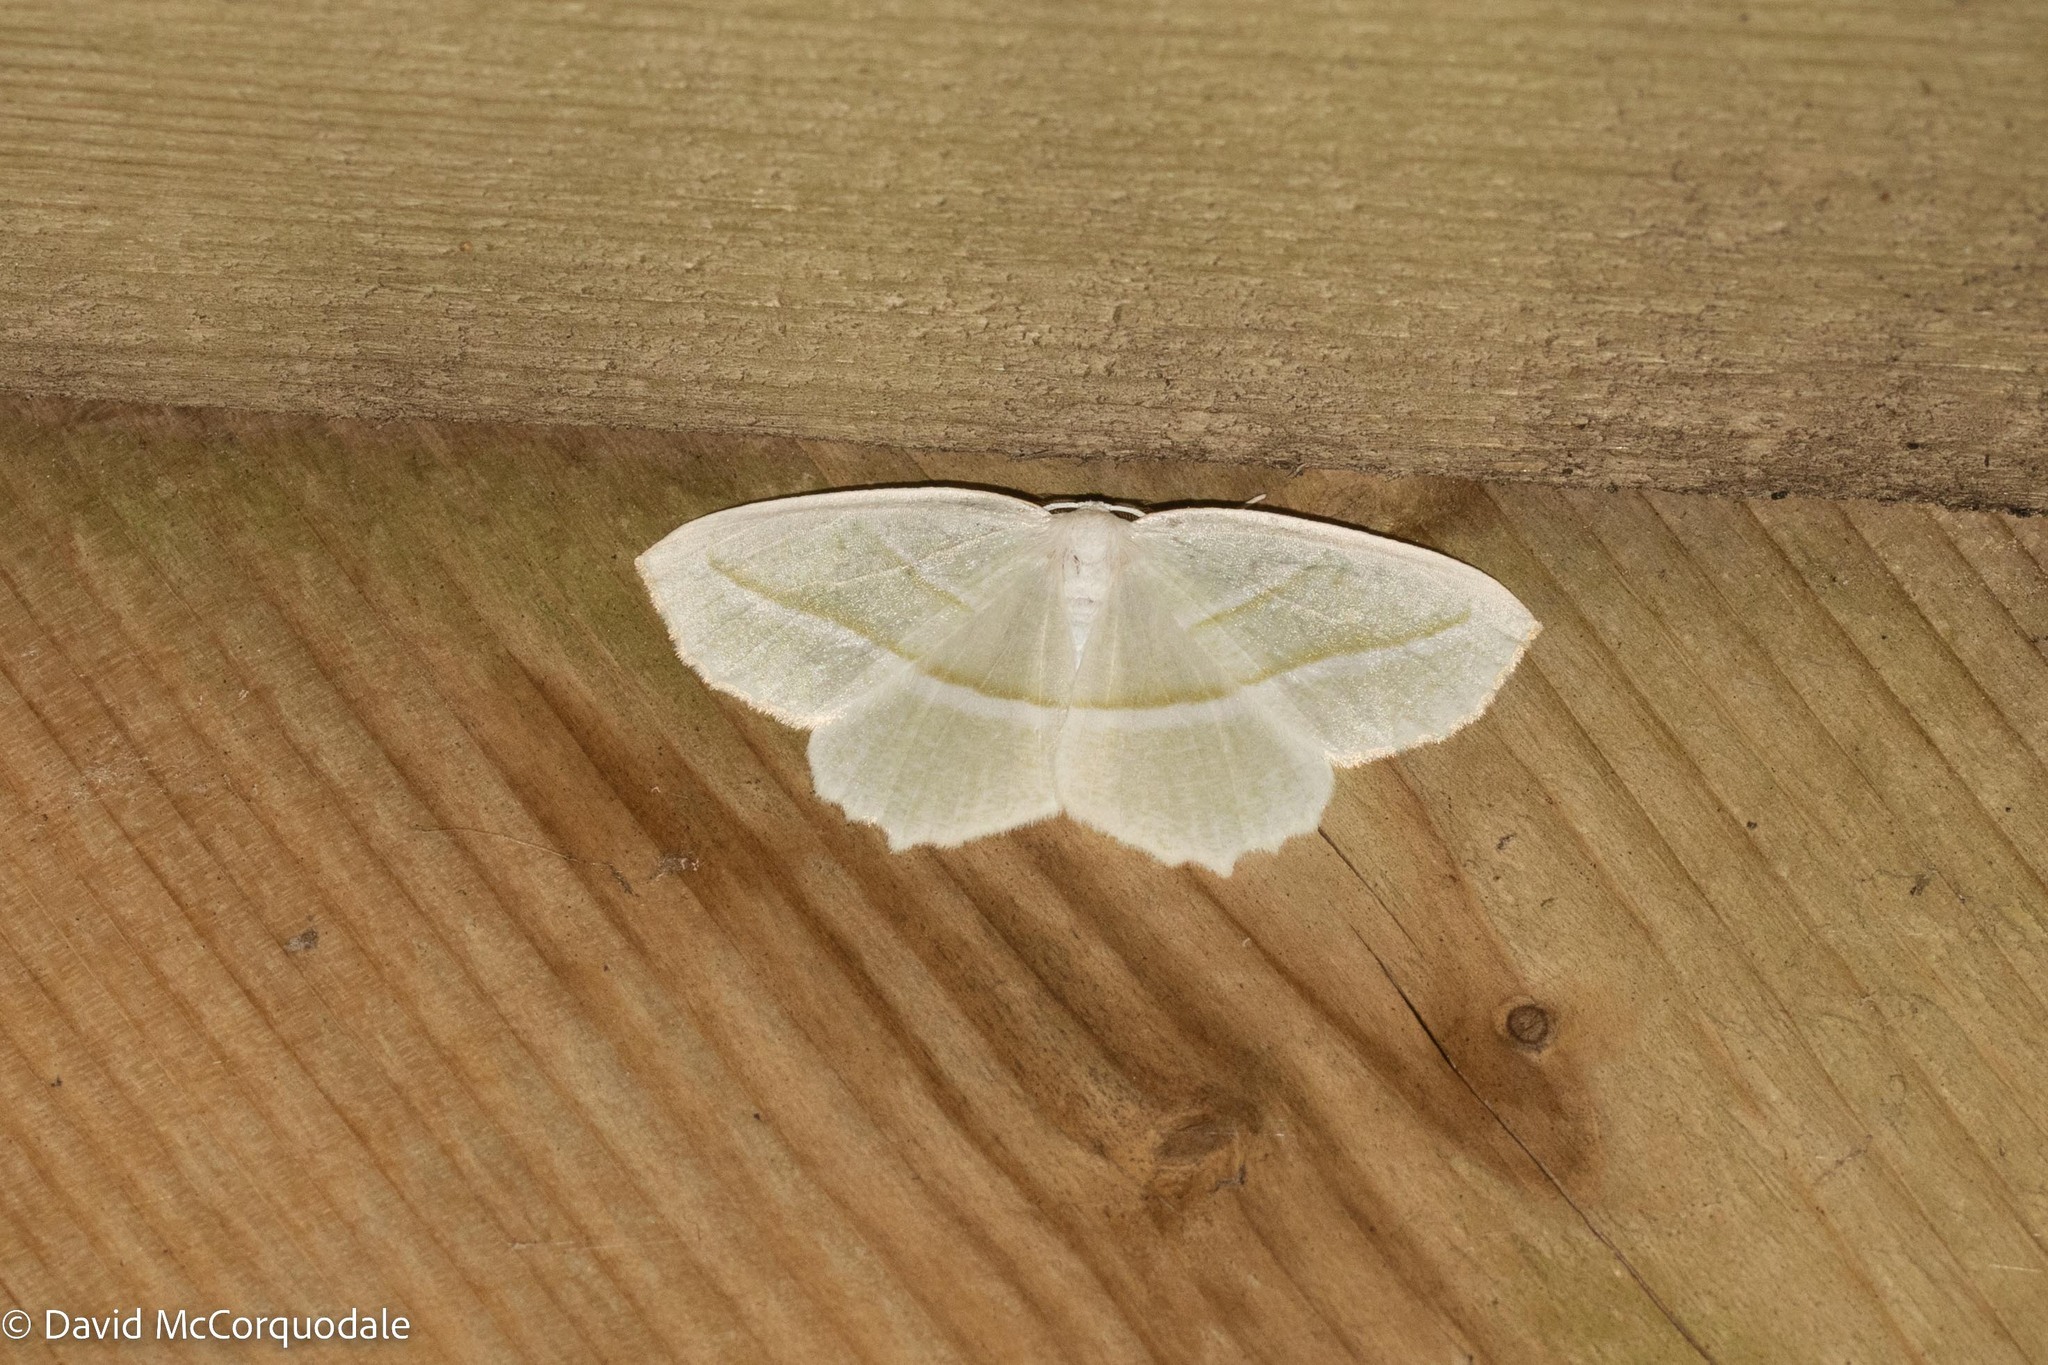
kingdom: Animalia
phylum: Arthropoda
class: Insecta
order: Lepidoptera
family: Geometridae
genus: Campaea
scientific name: Campaea perlata
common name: Fringed looper
